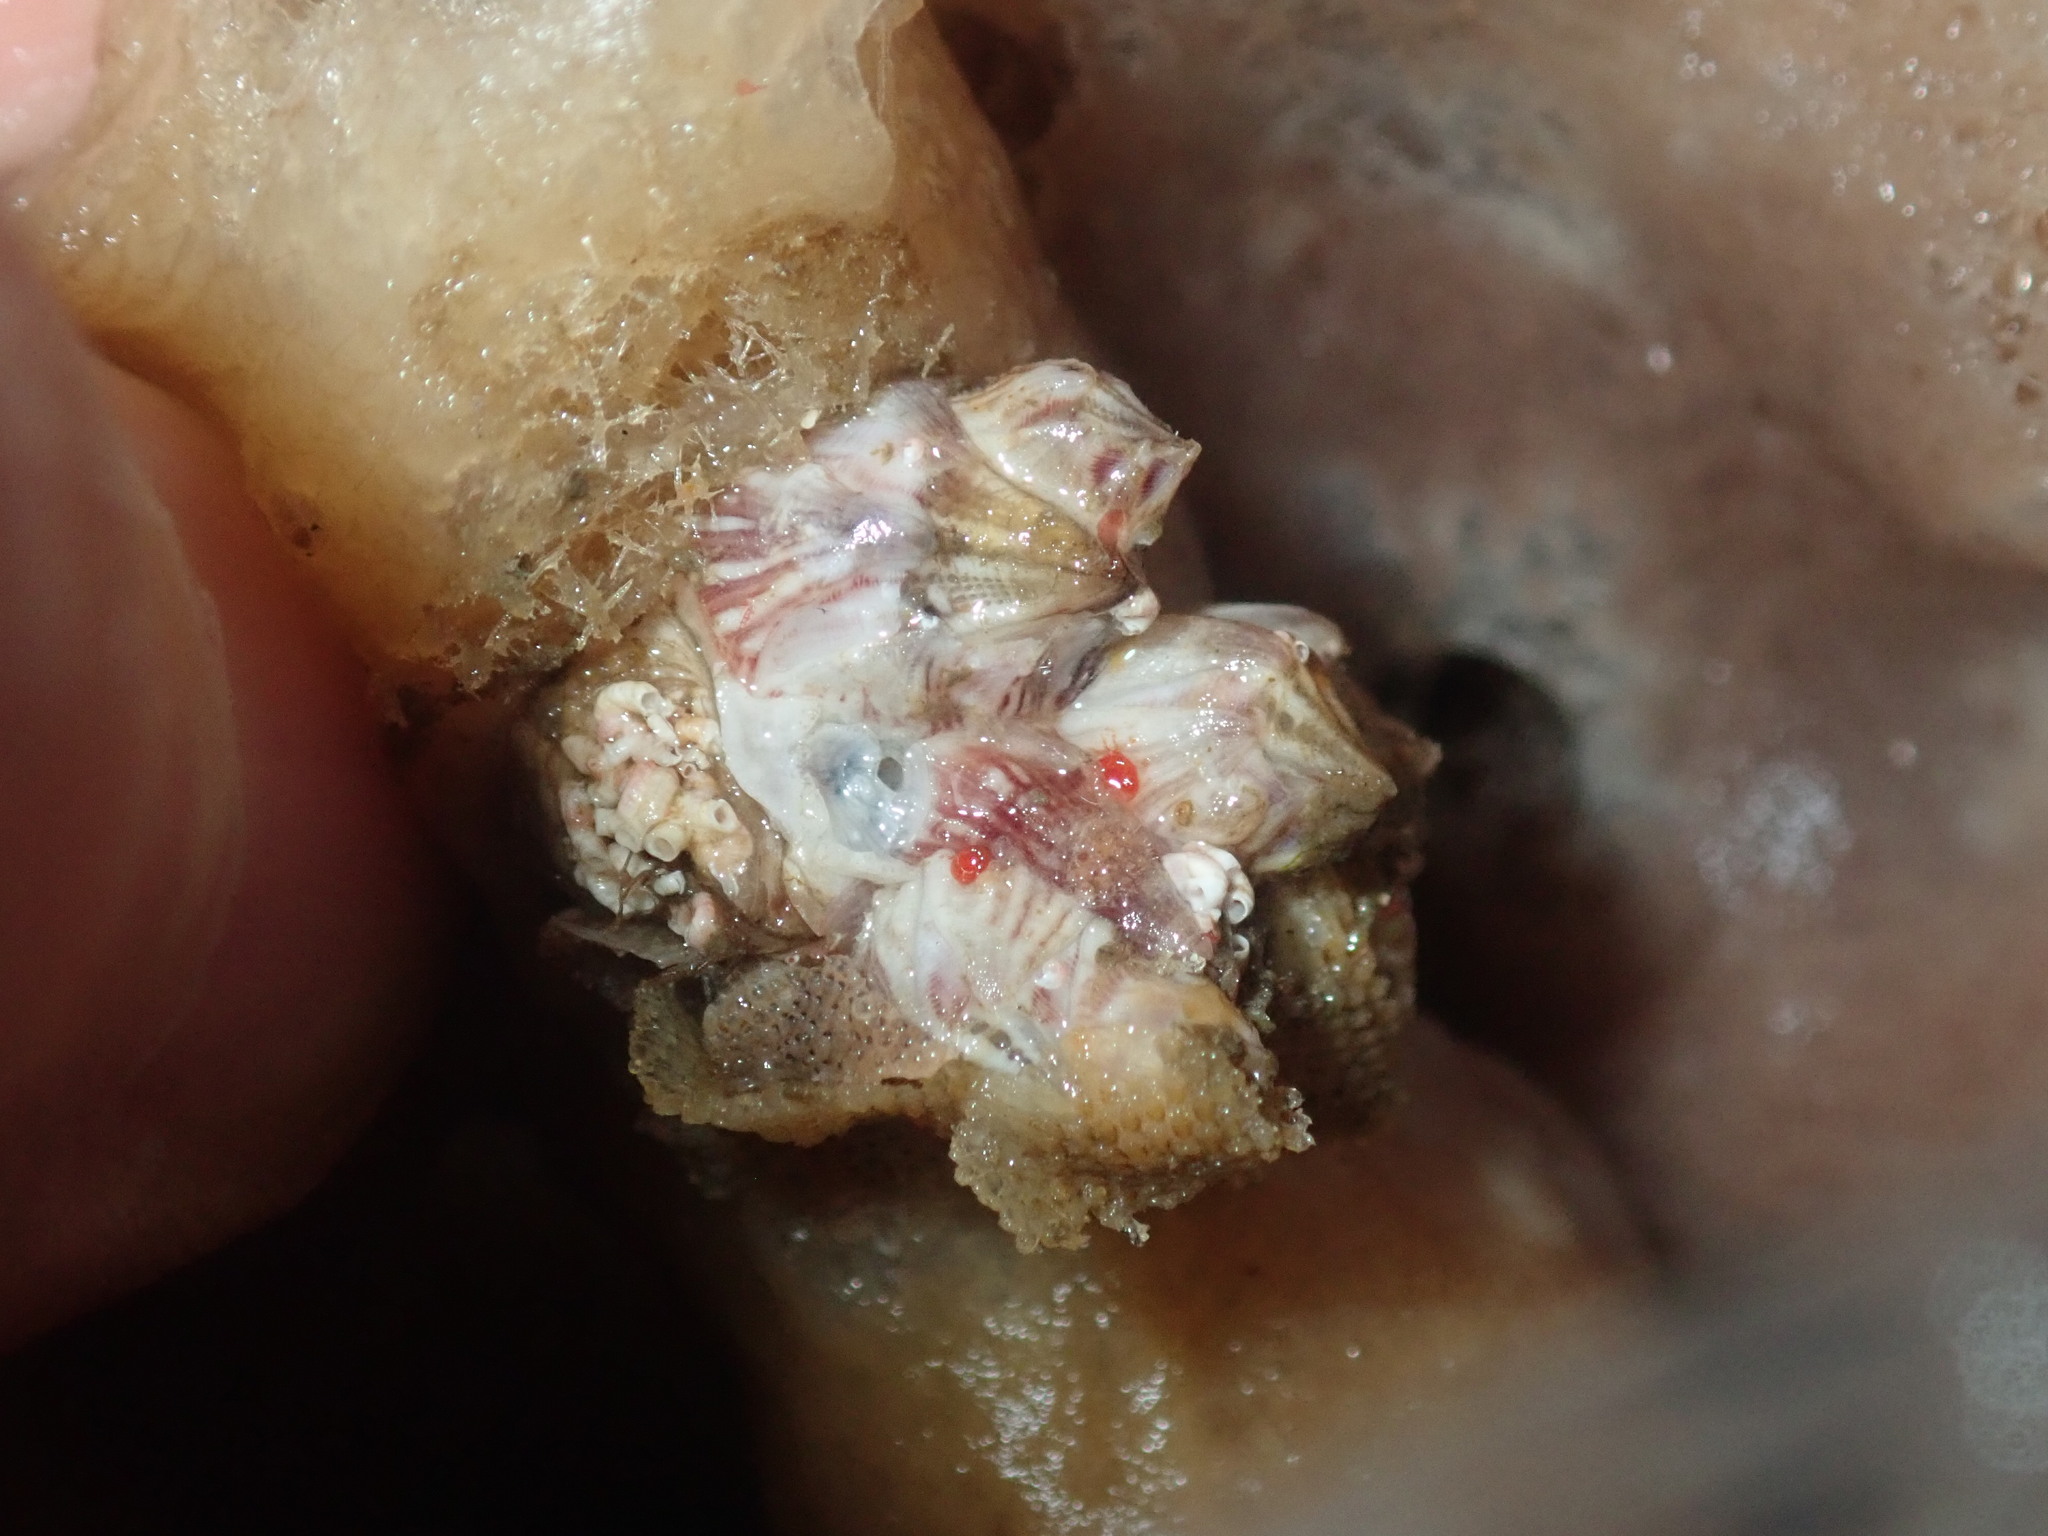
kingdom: Animalia
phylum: Arthropoda
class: Maxillopoda
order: Sessilia
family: Balanidae
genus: Balanus
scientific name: Balanus trigonus
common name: Triangle barnacle
